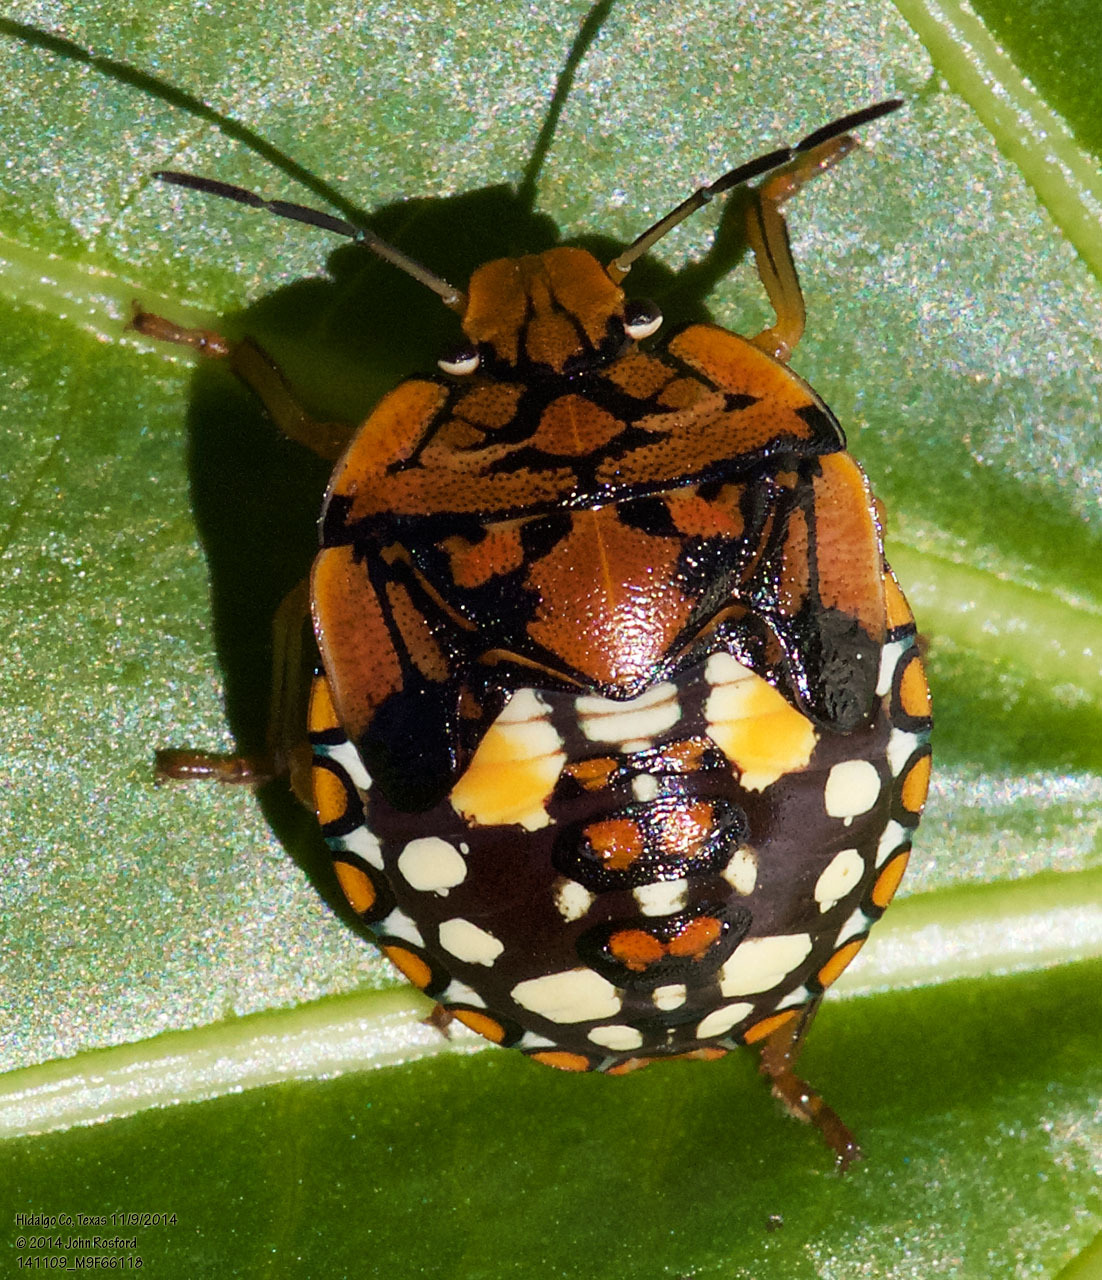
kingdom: Animalia
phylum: Arthropoda
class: Insecta
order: Hemiptera
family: Pentatomidae
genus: Acrosternum
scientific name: Acrosternum marginatum
